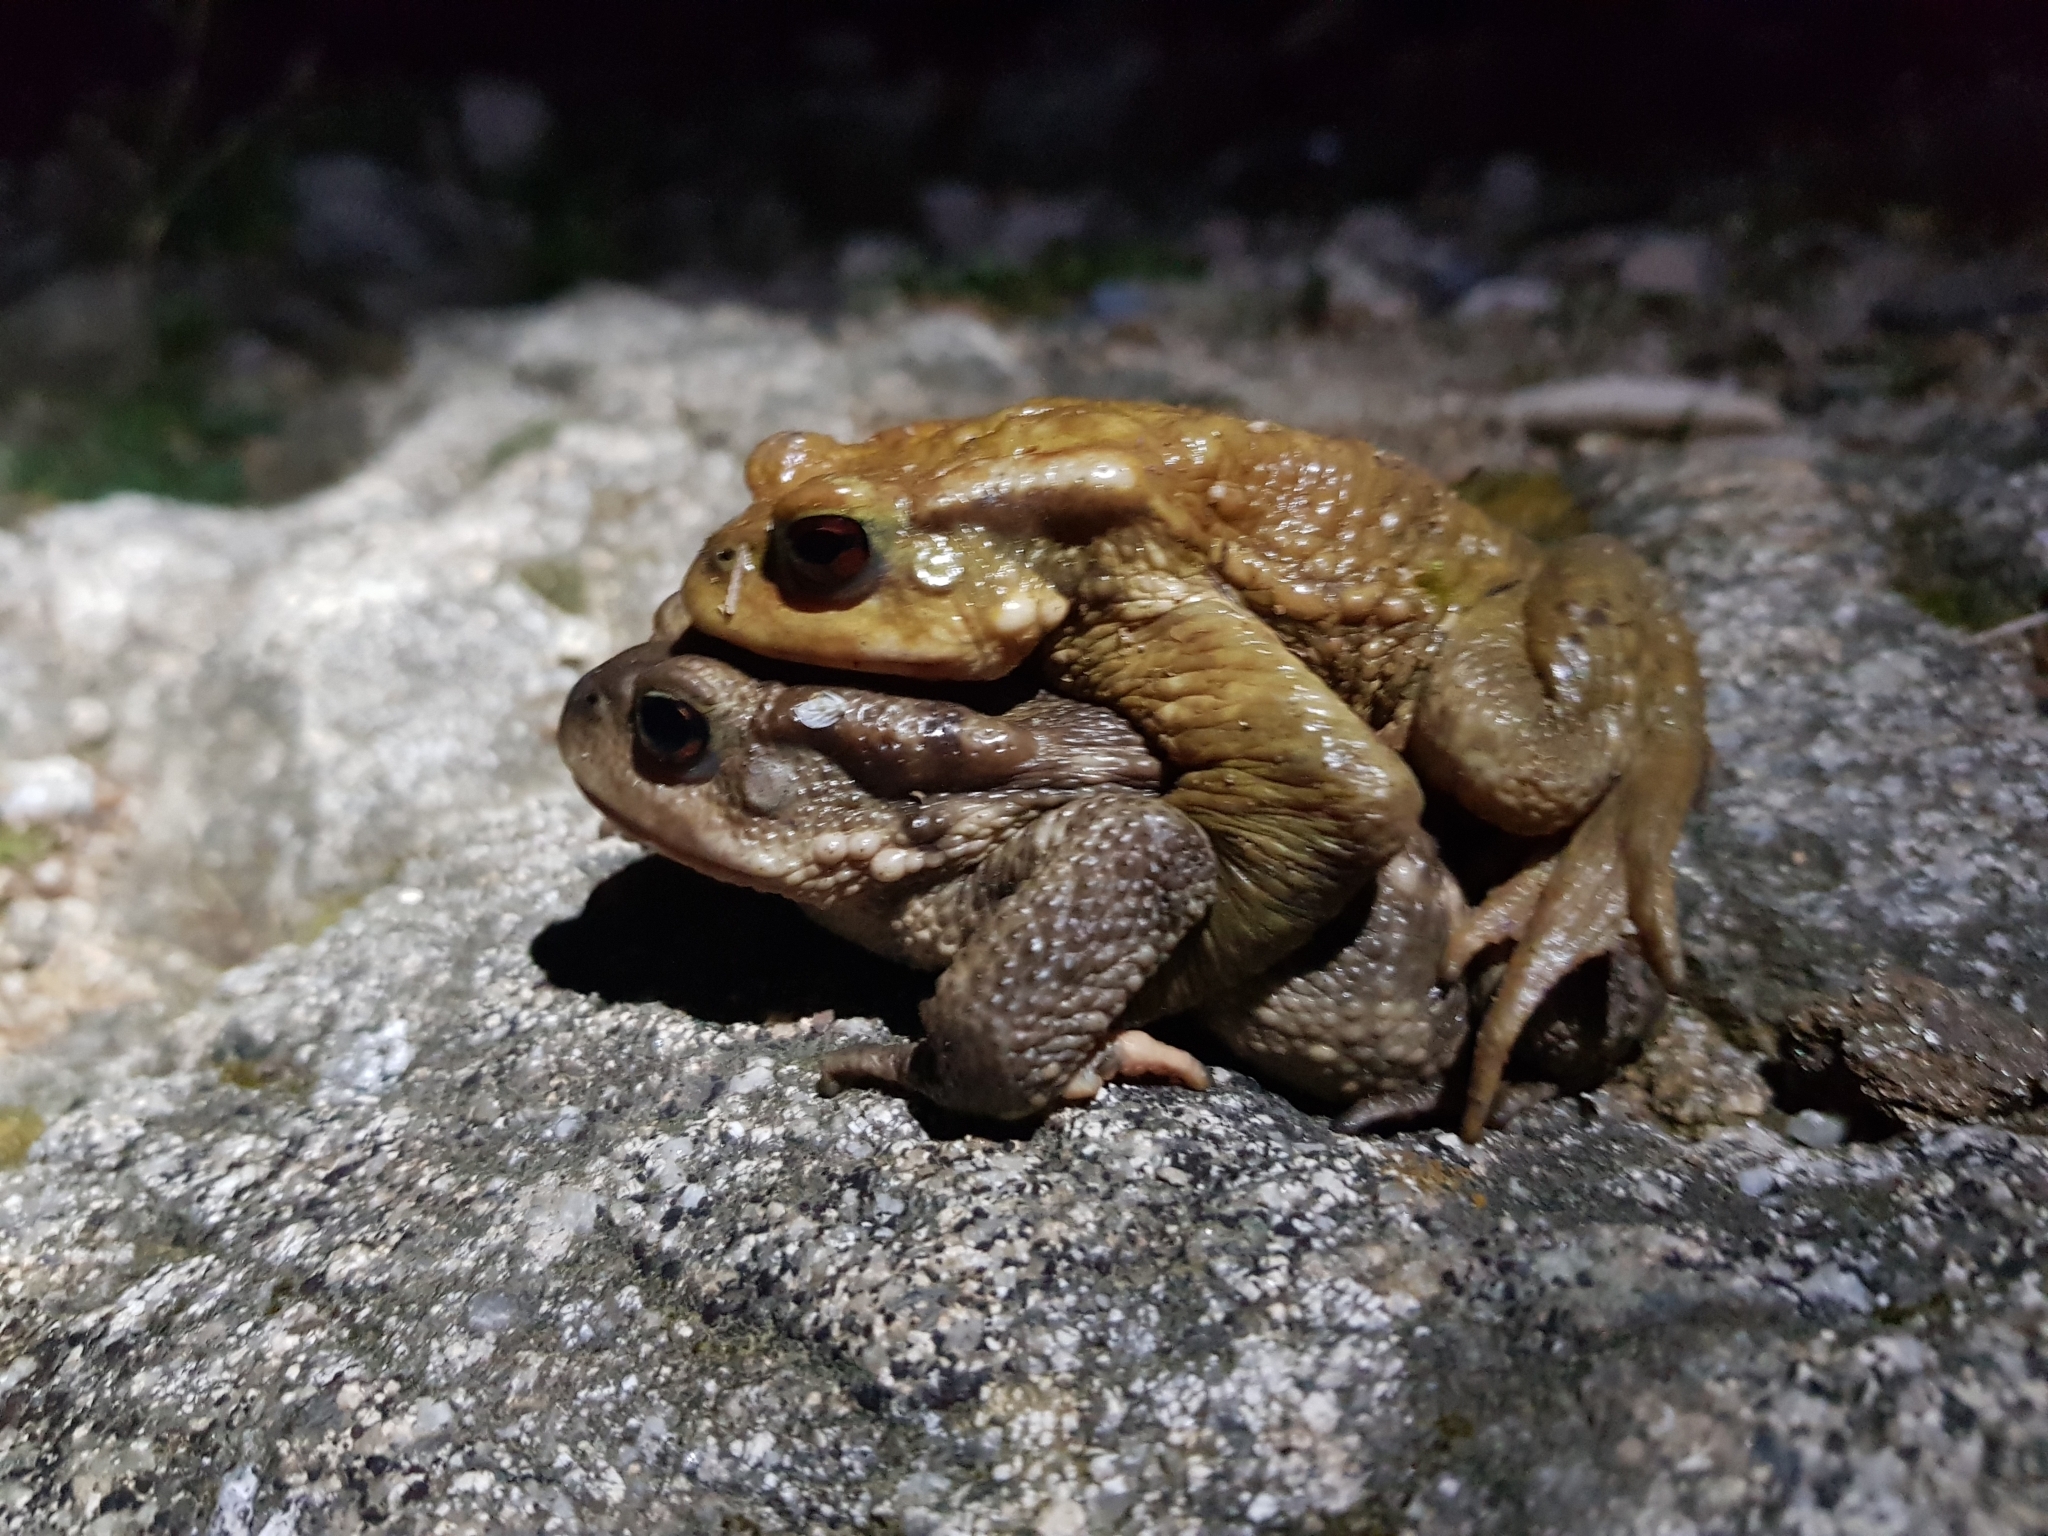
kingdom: Animalia
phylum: Chordata
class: Amphibia
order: Anura
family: Bufonidae
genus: Bufo
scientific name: Bufo spinosus
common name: Western common toad
